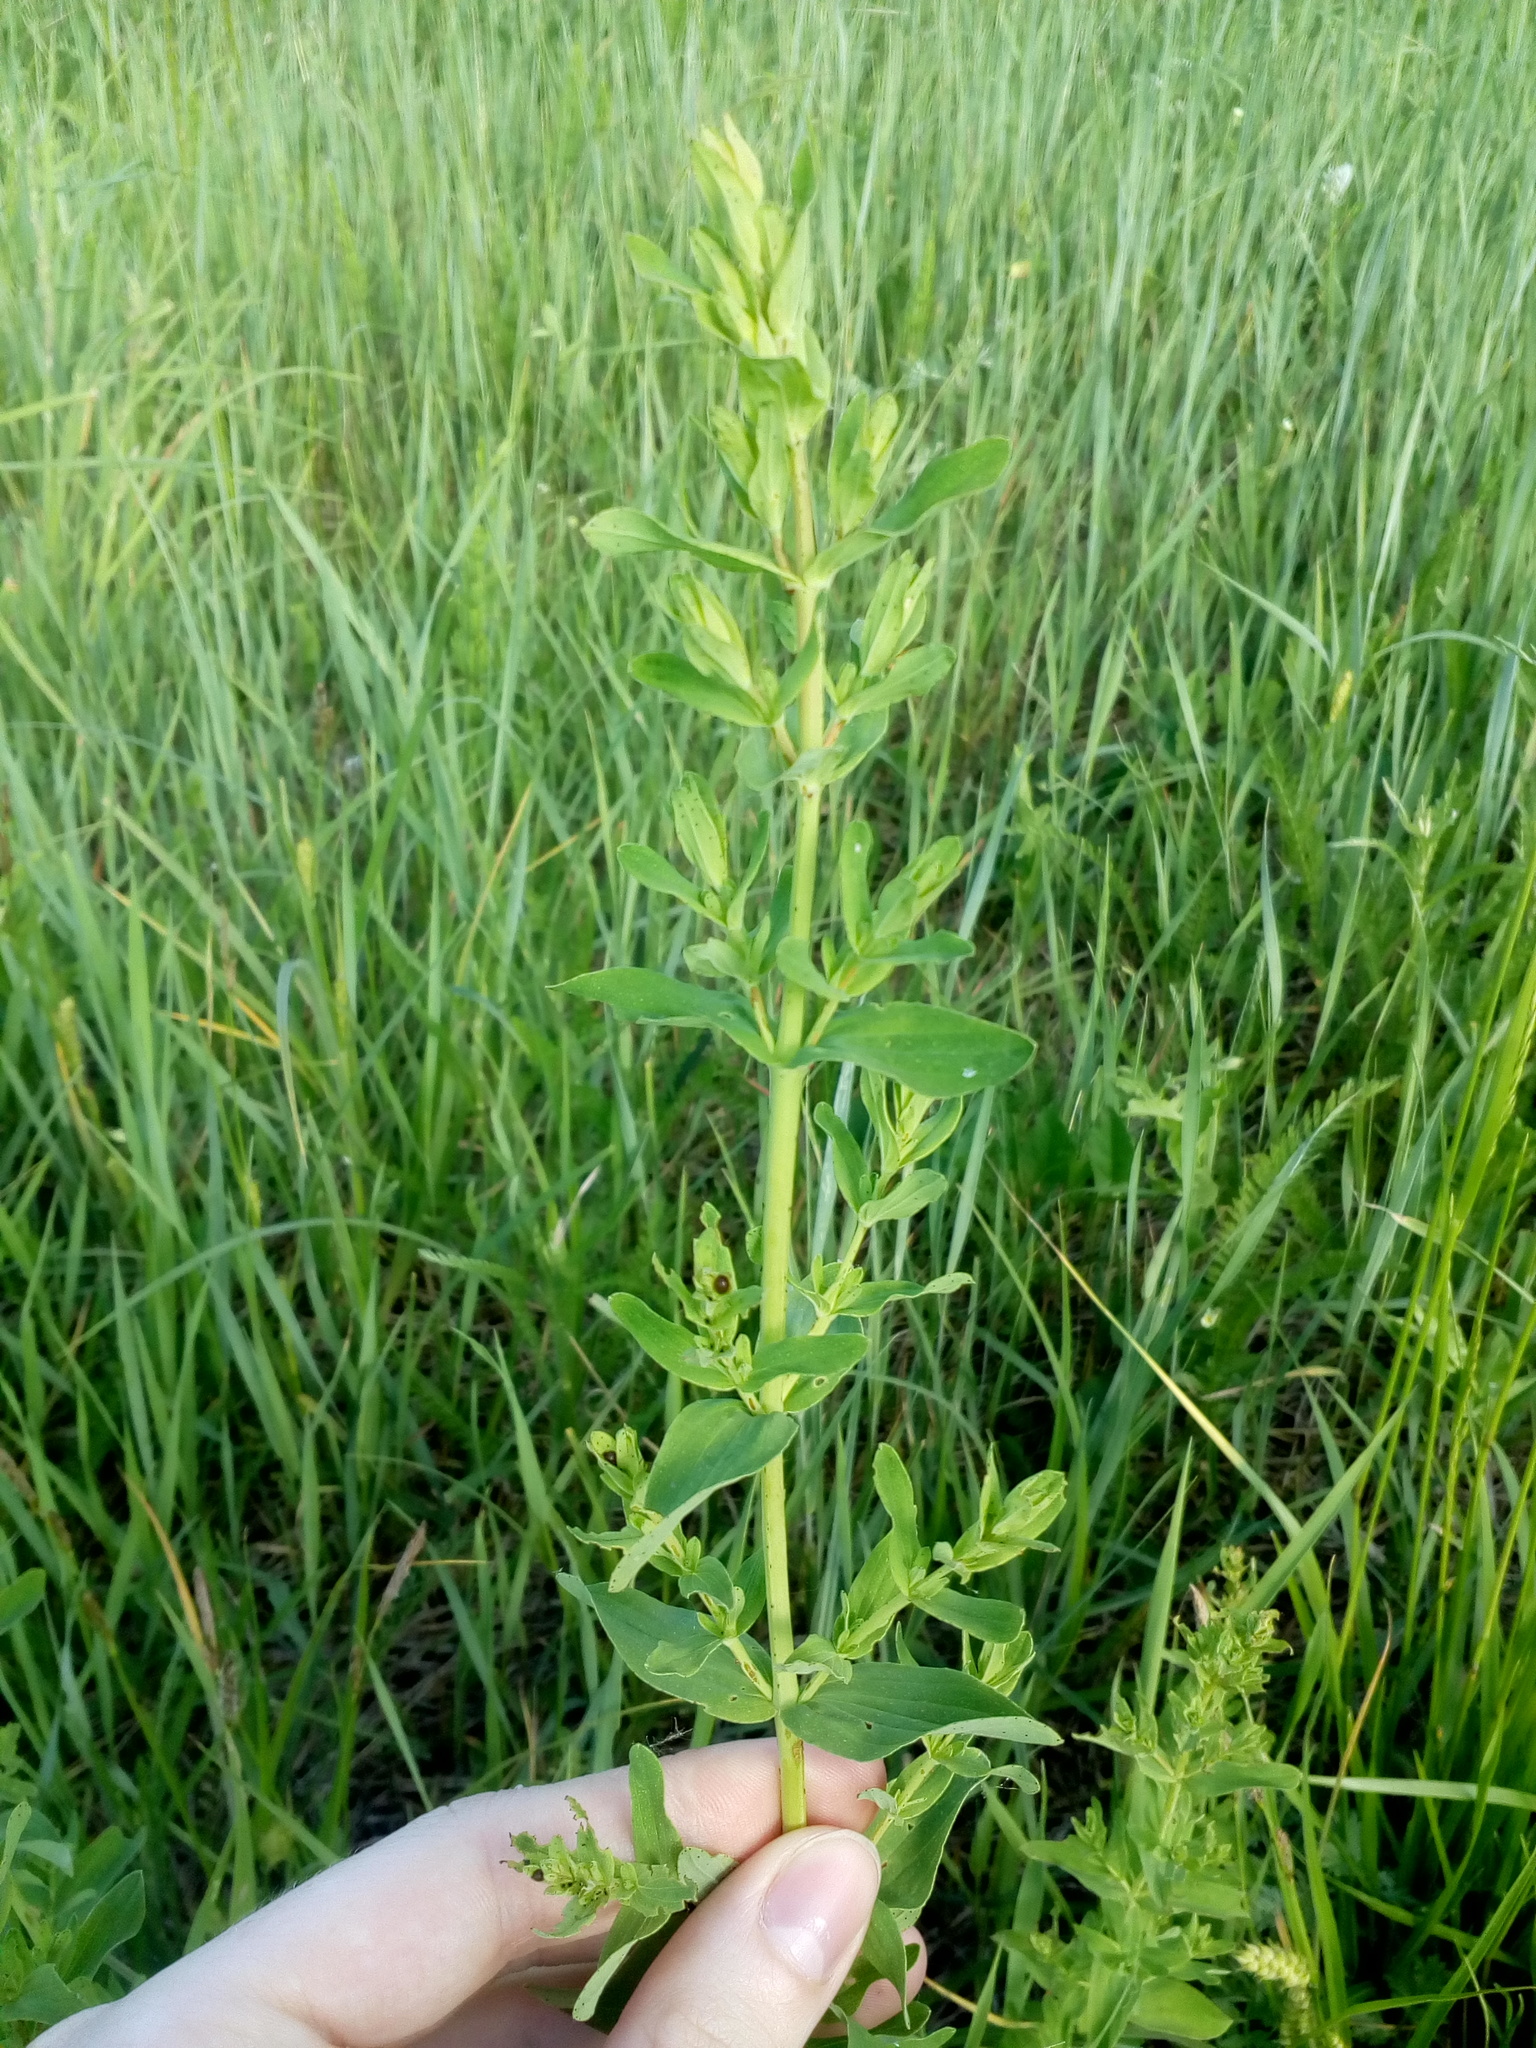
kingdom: Plantae
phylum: Tracheophyta
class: Magnoliopsida
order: Malpighiales
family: Hypericaceae
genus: Hypericum
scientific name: Hypericum perforatum
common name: Common st. johnswort
